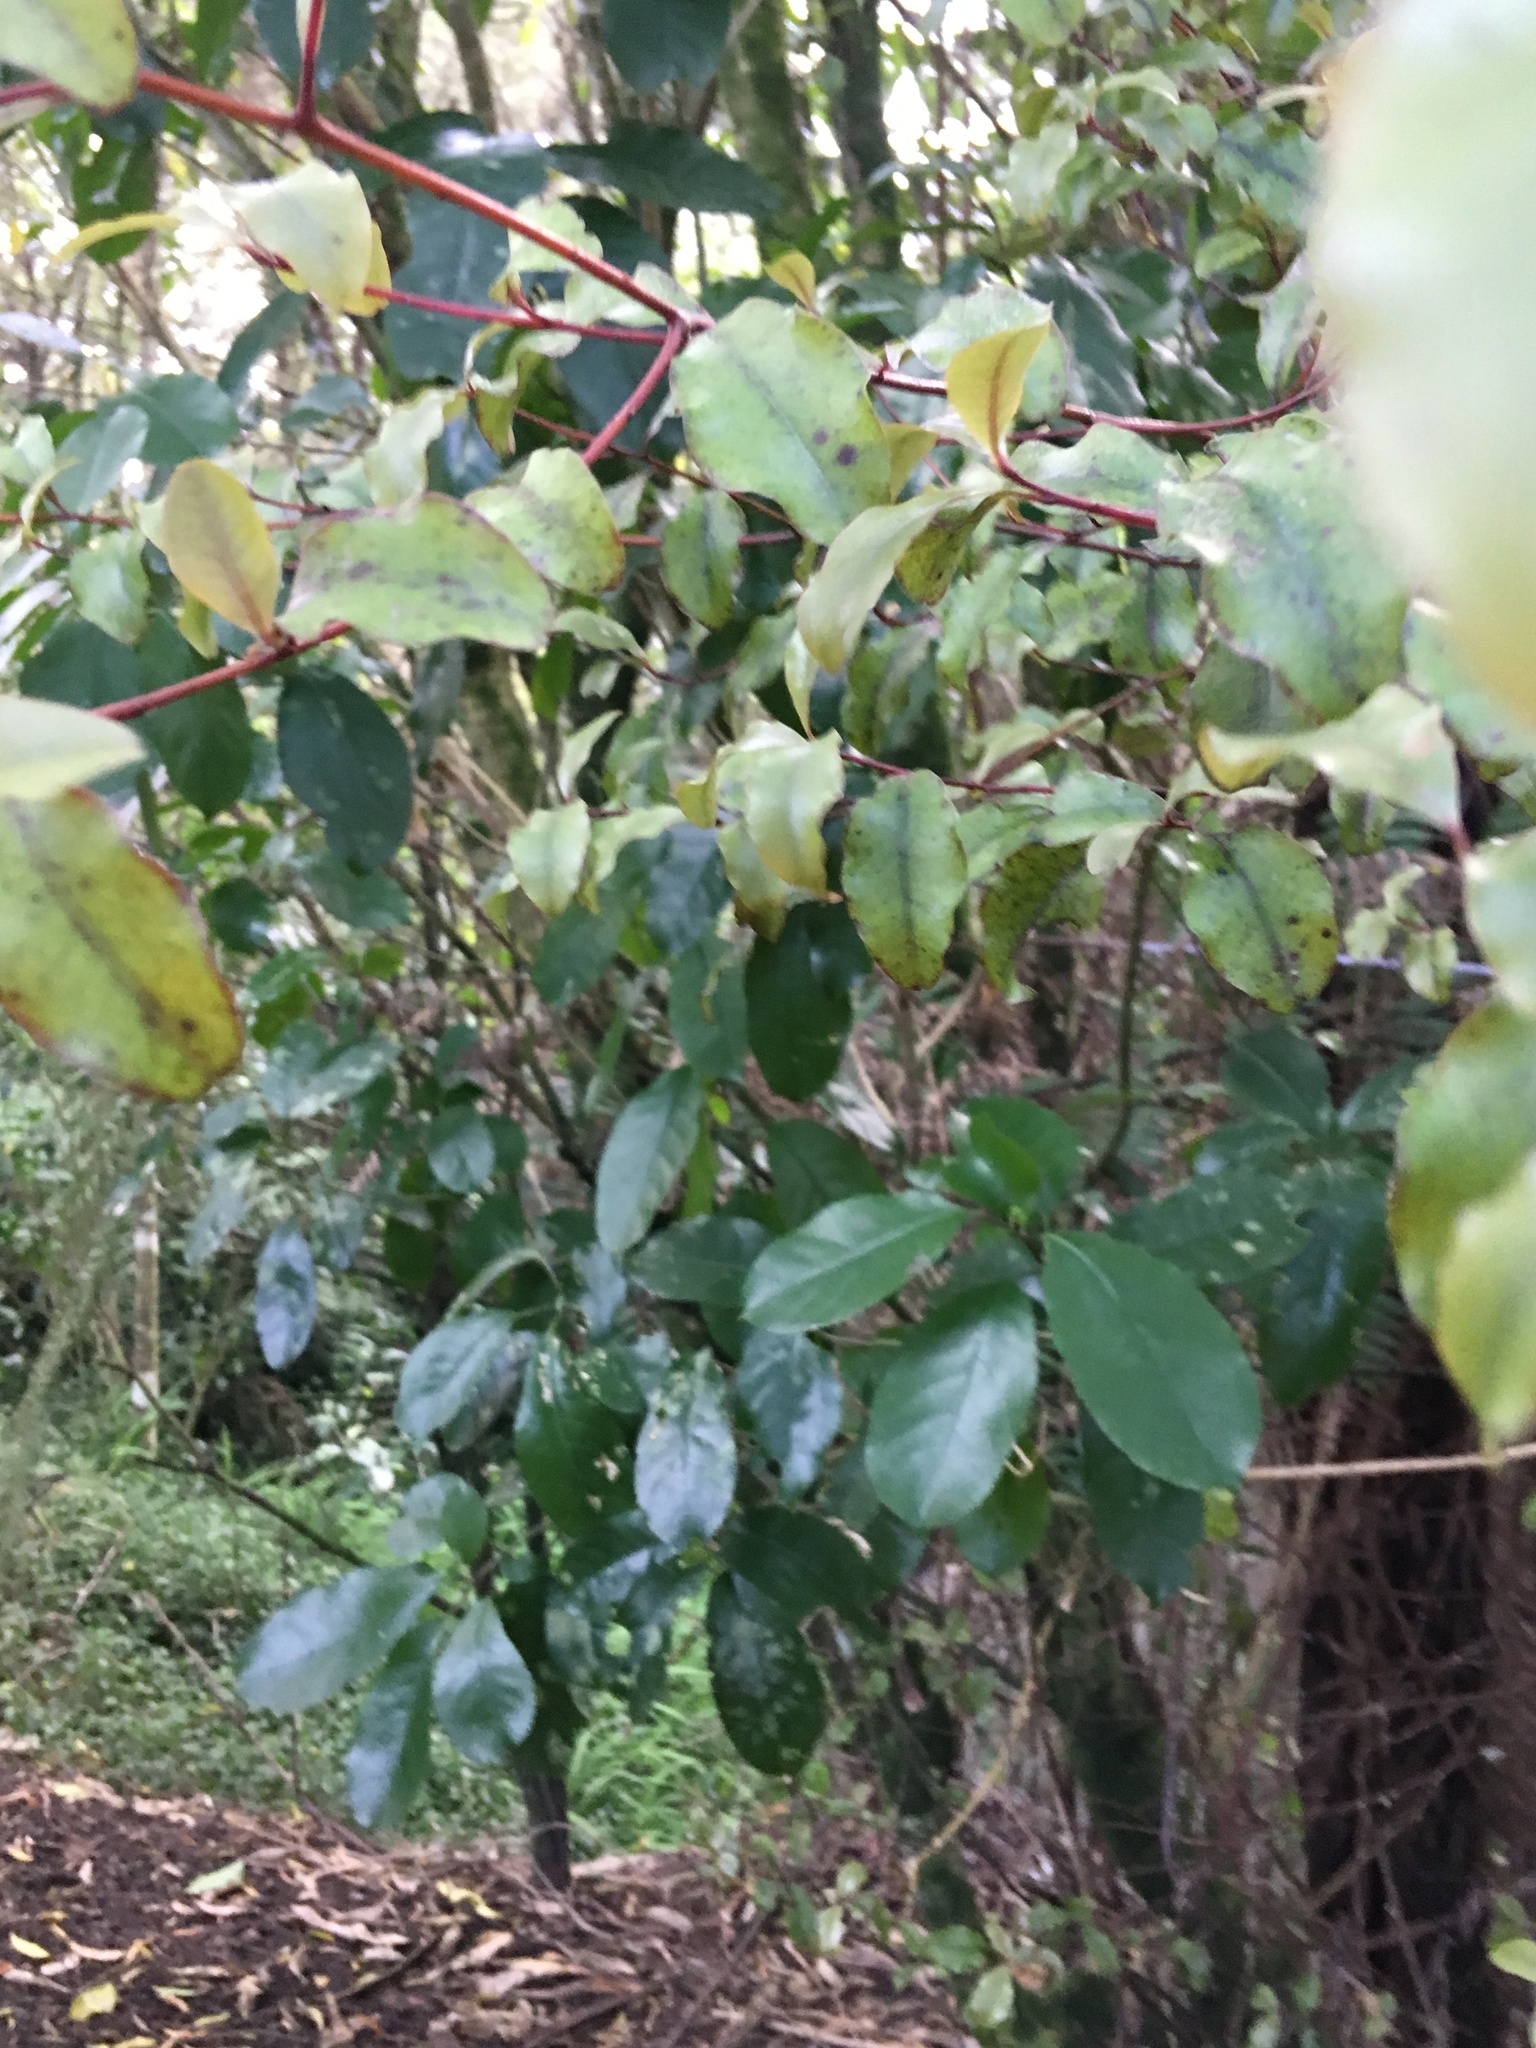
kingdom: Plantae
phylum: Tracheophyta
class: Magnoliopsida
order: Ericales
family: Primulaceae
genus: Myrsine
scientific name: Myrsine australis
